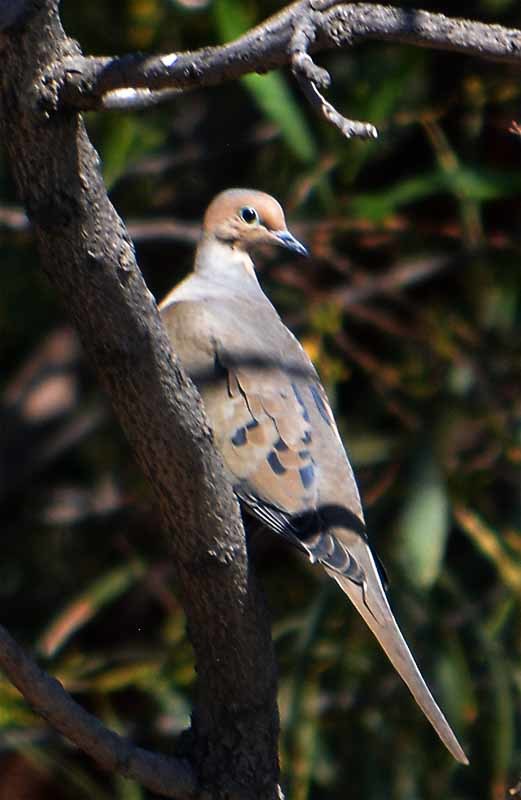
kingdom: Animalia
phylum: Chordata
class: Aves
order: Columbiformes
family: Columbidae
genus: Zenaida
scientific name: Zenaida macroura
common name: Mourning dove
